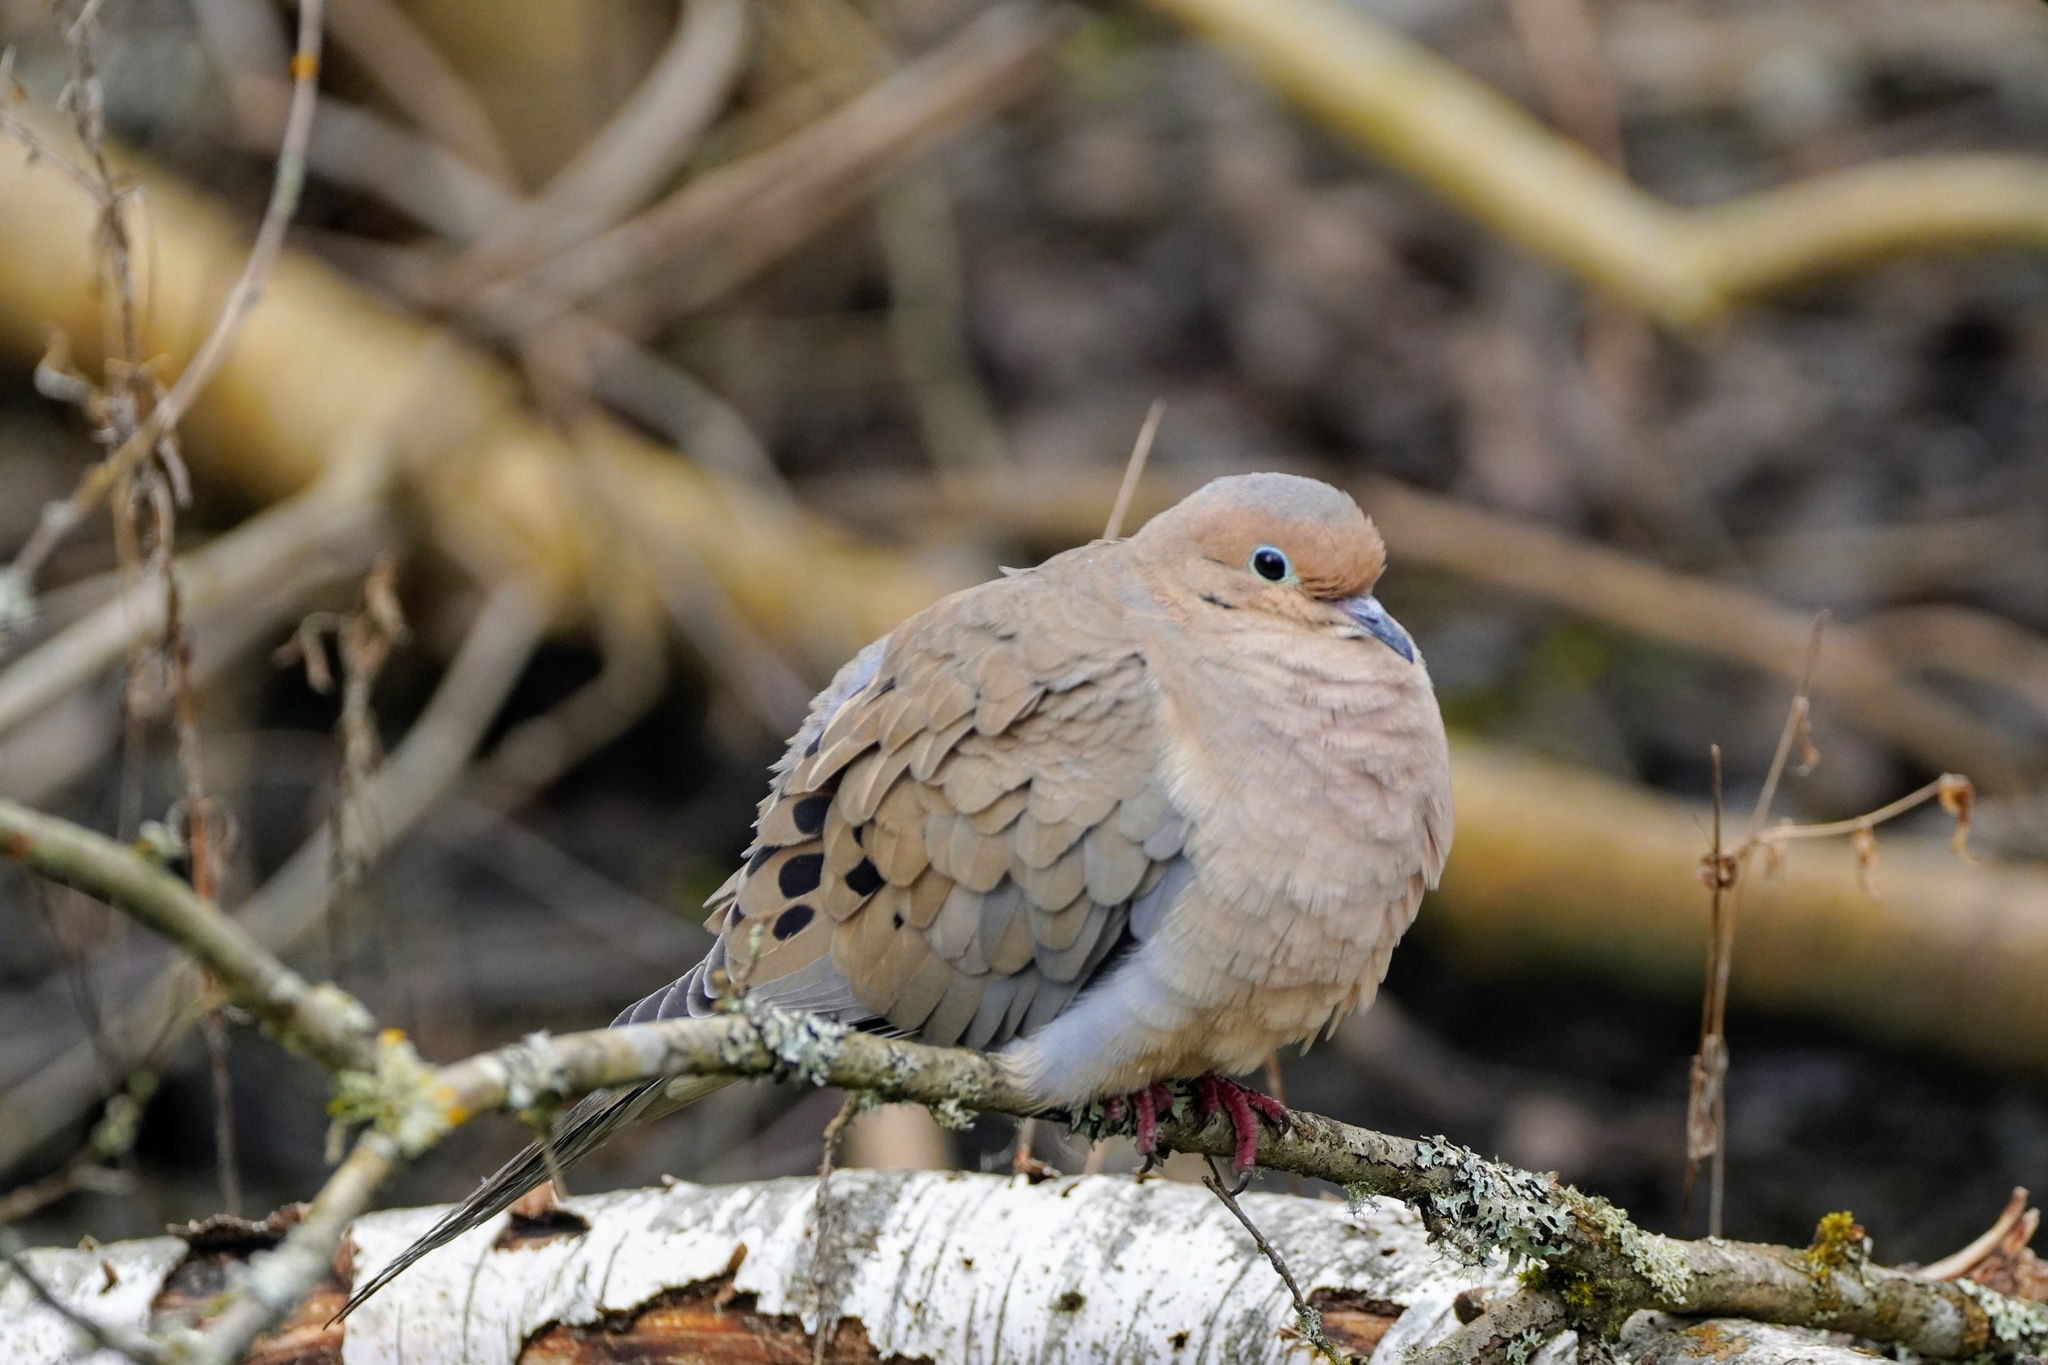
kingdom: Animalia
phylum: Chordata
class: Aves
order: Columbiformes
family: Columbidae
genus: Zenaida
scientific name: Zenaida macroura
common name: Mourning dove
